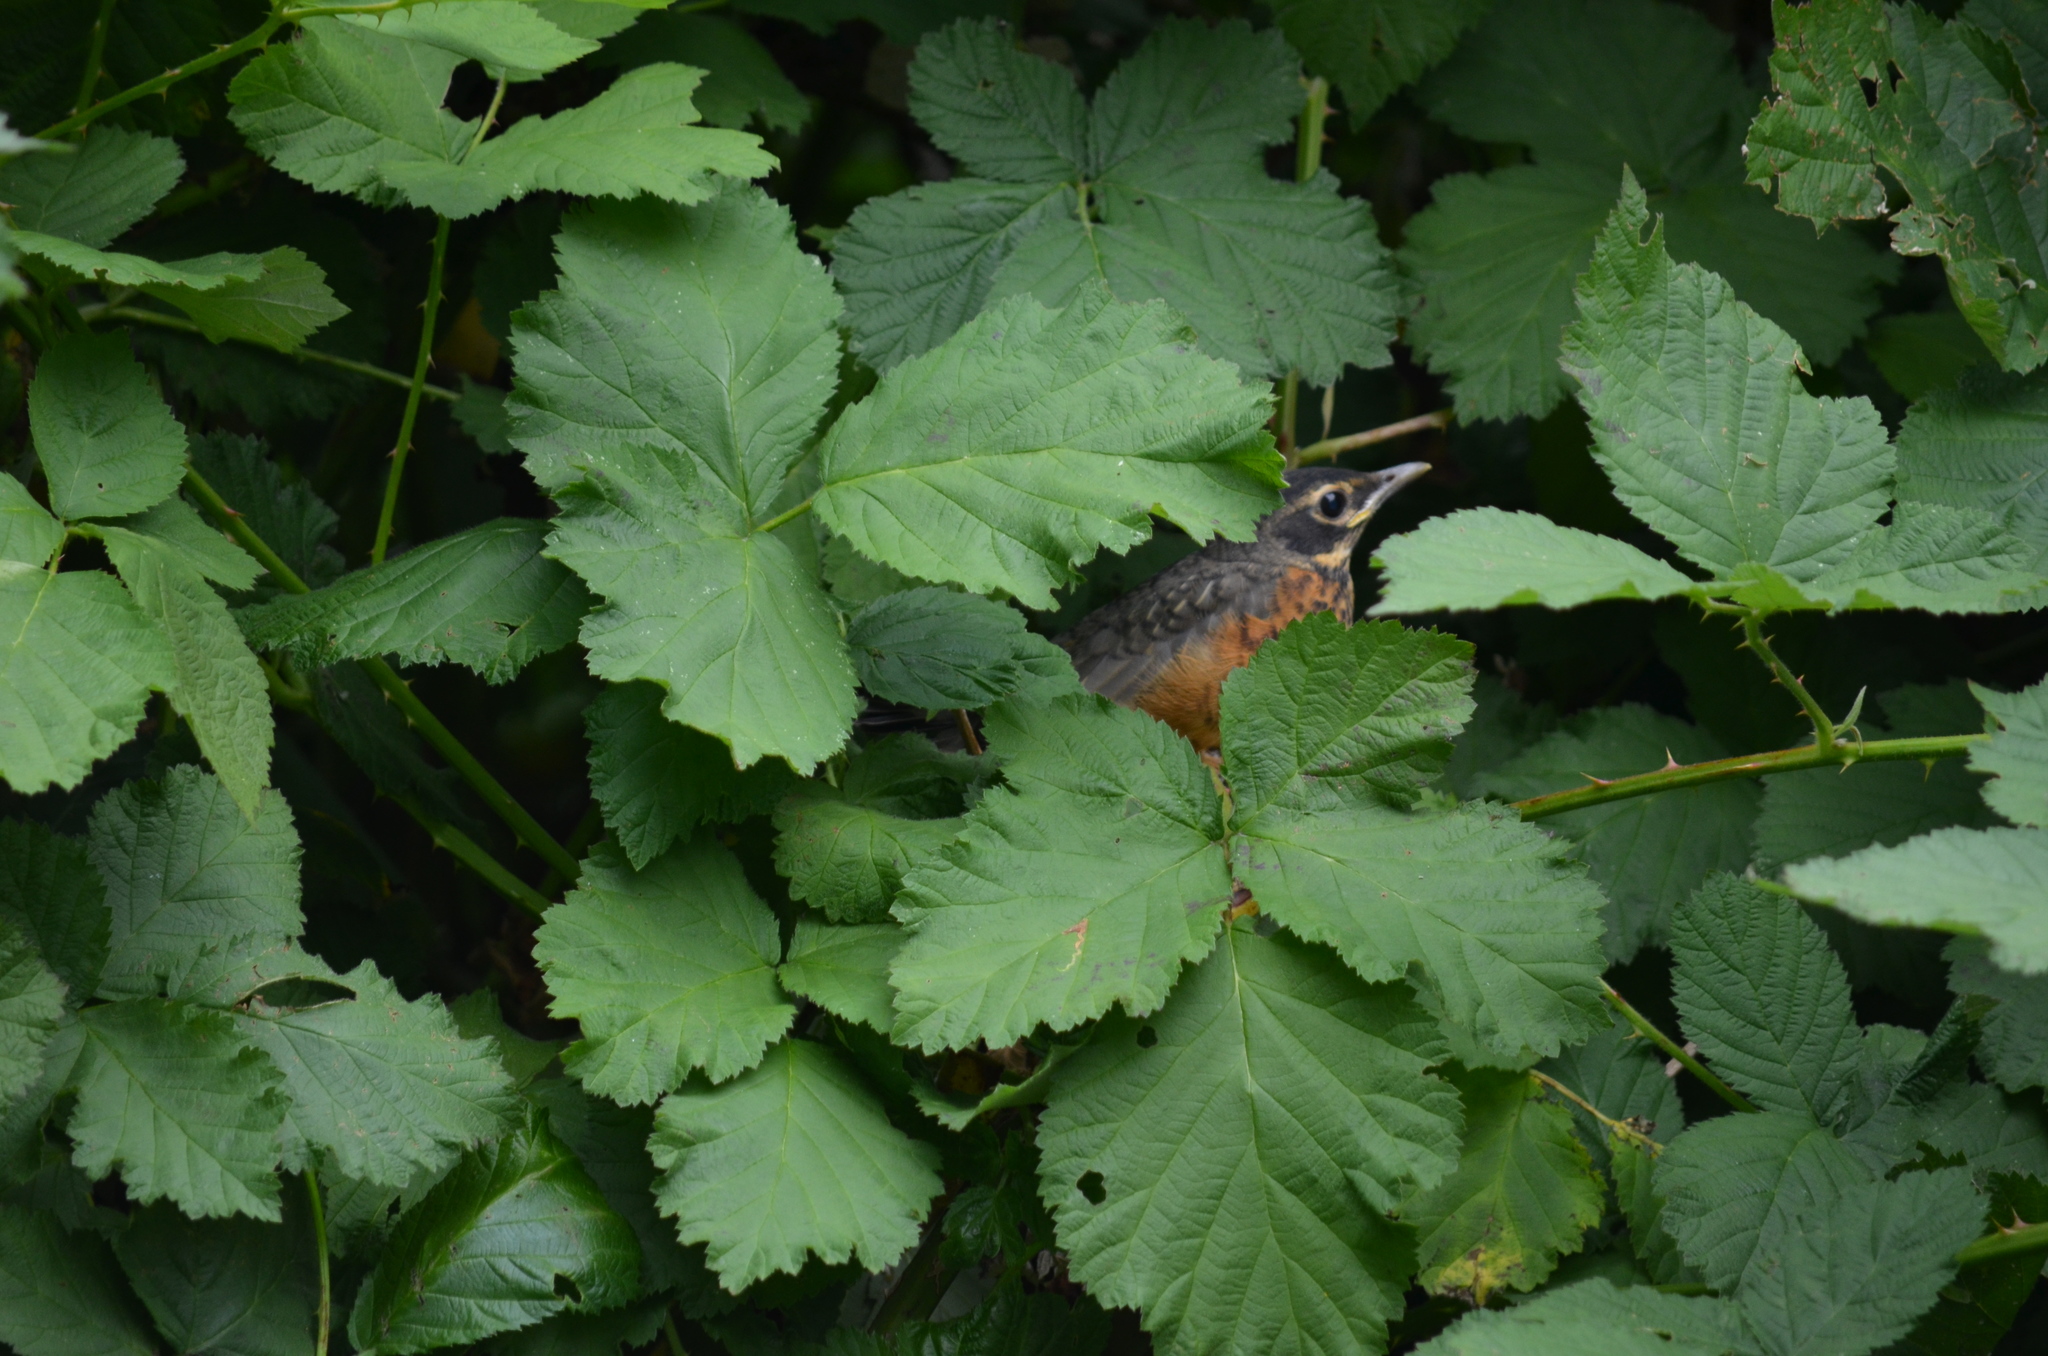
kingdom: Animalia
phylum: Chordata
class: Aves
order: Passeriformes
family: Turdidae
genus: Turdus
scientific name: Turdus migratorius
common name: American robin
